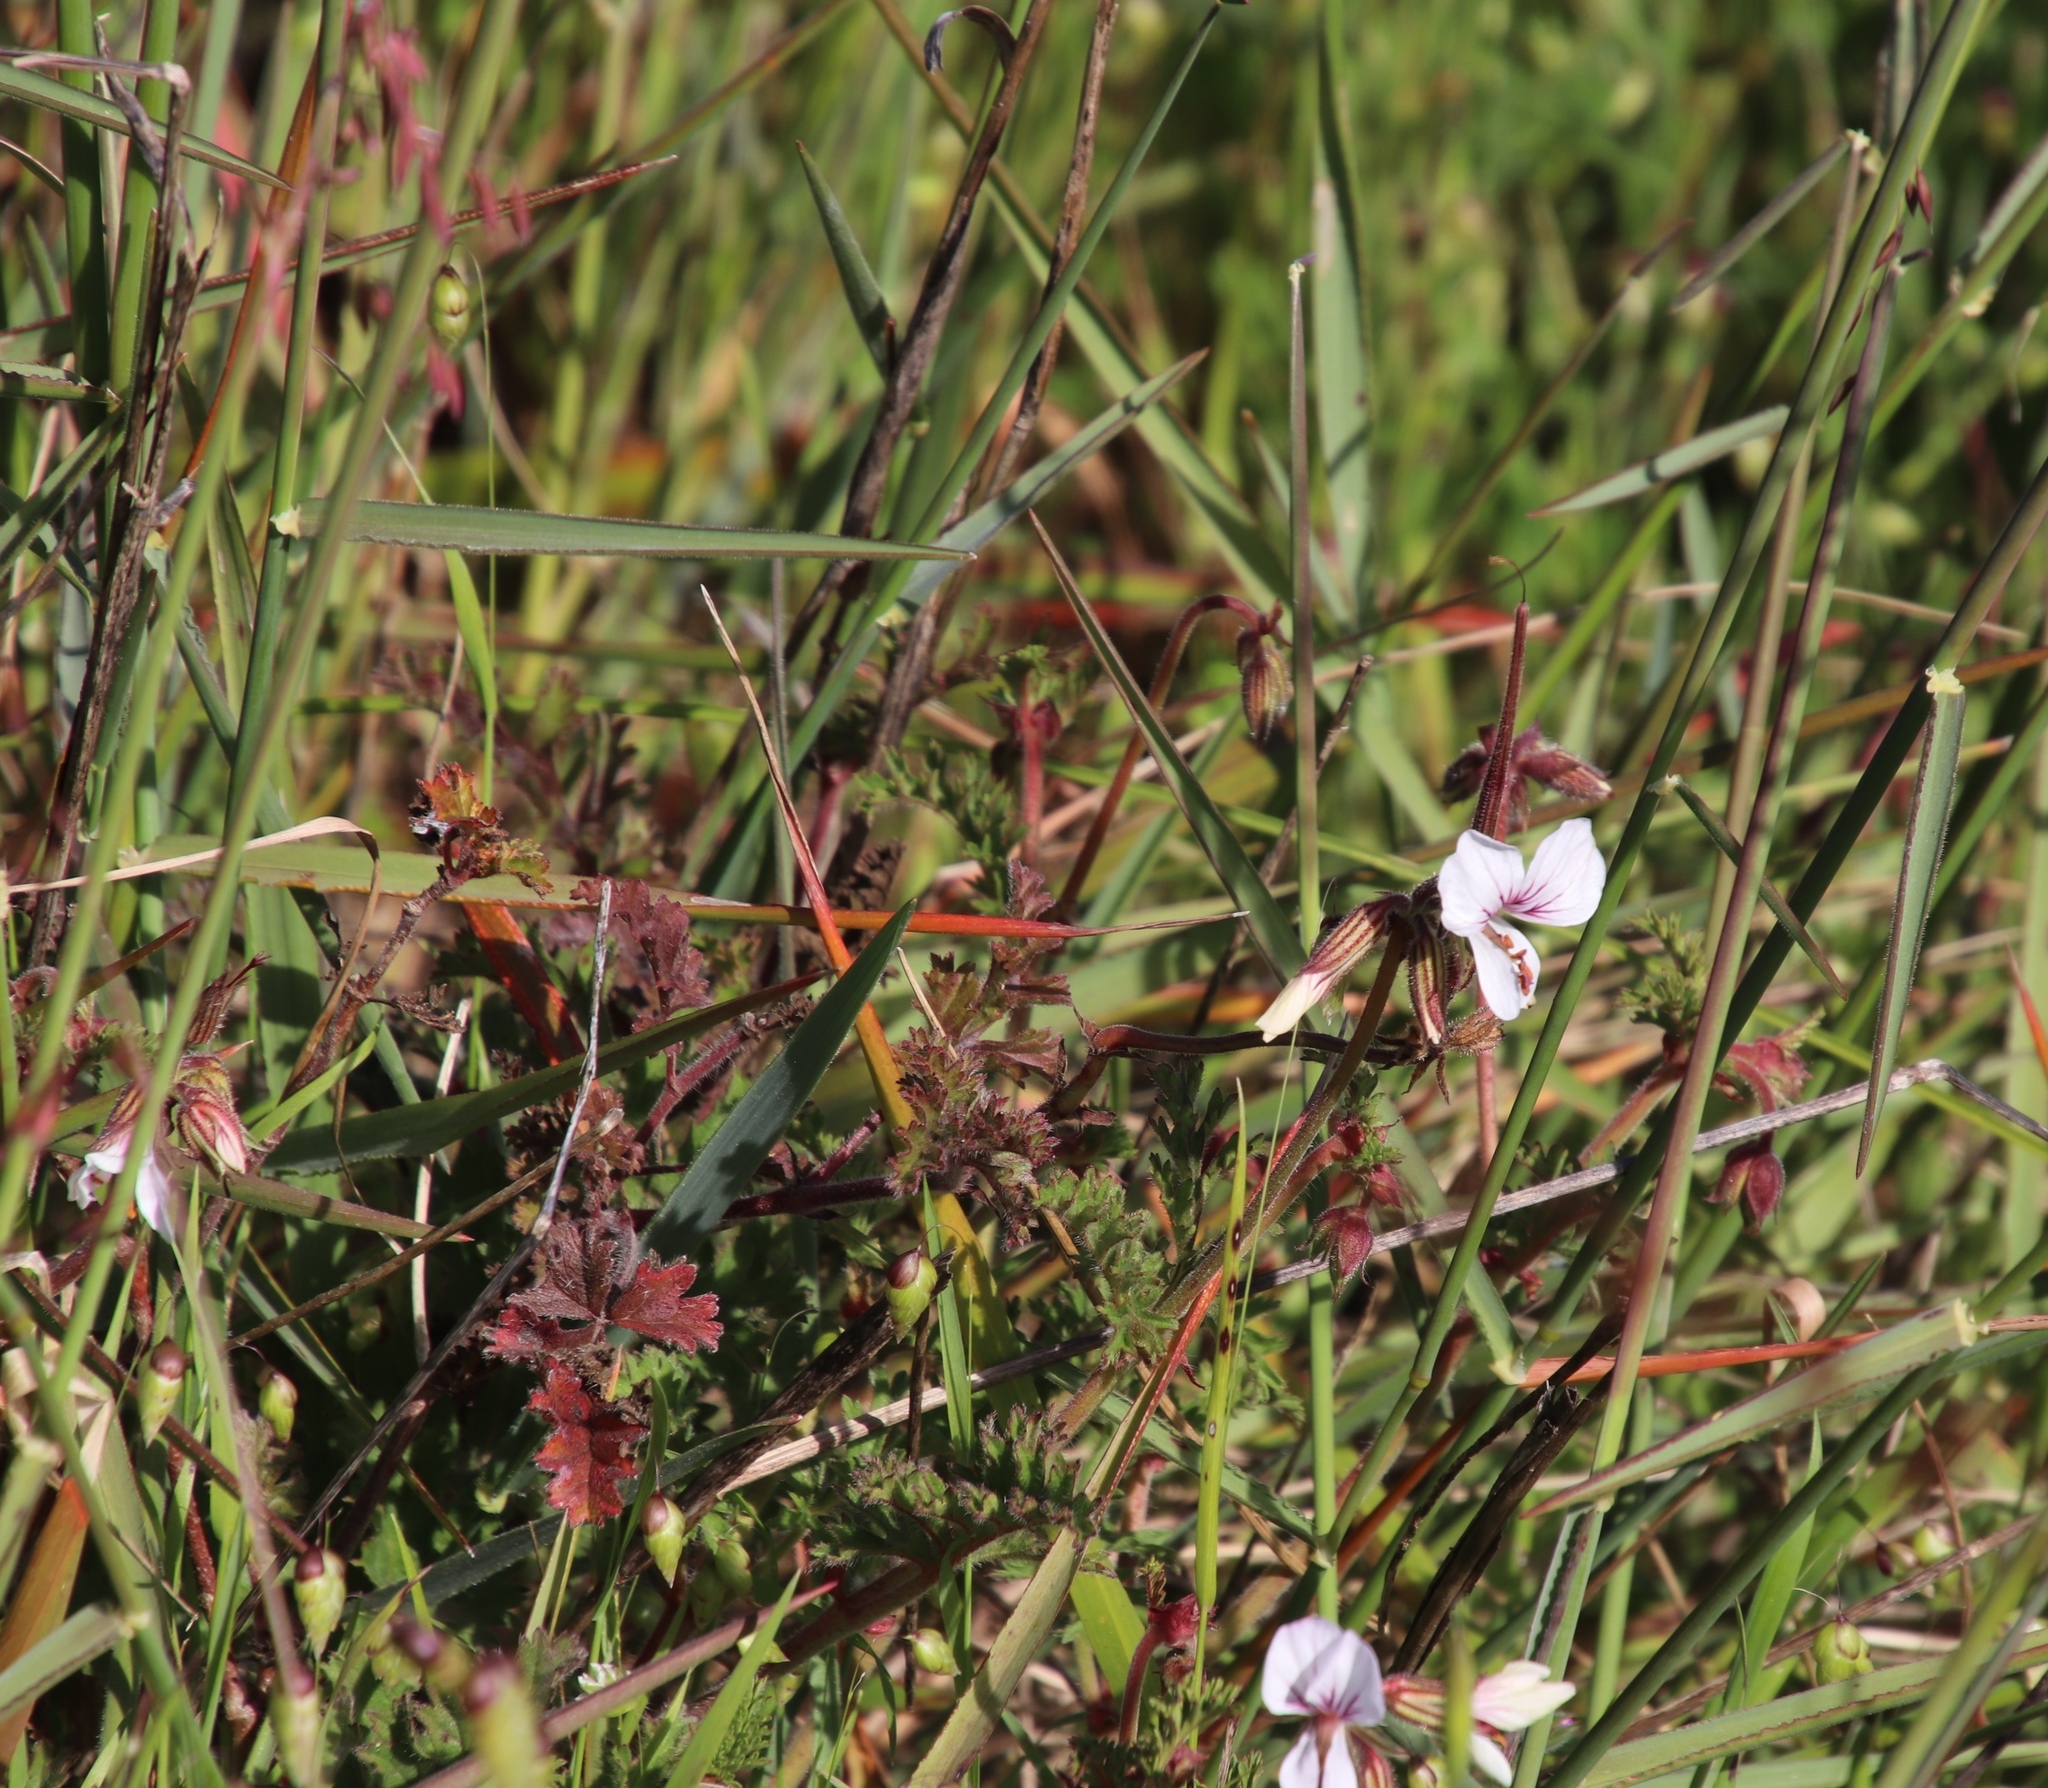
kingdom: Plantae
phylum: Tracheophyta
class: Magnoliopsida
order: Geraniales
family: Geraniaceae
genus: Pelargonium
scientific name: Pelargonium myrrhifolium
